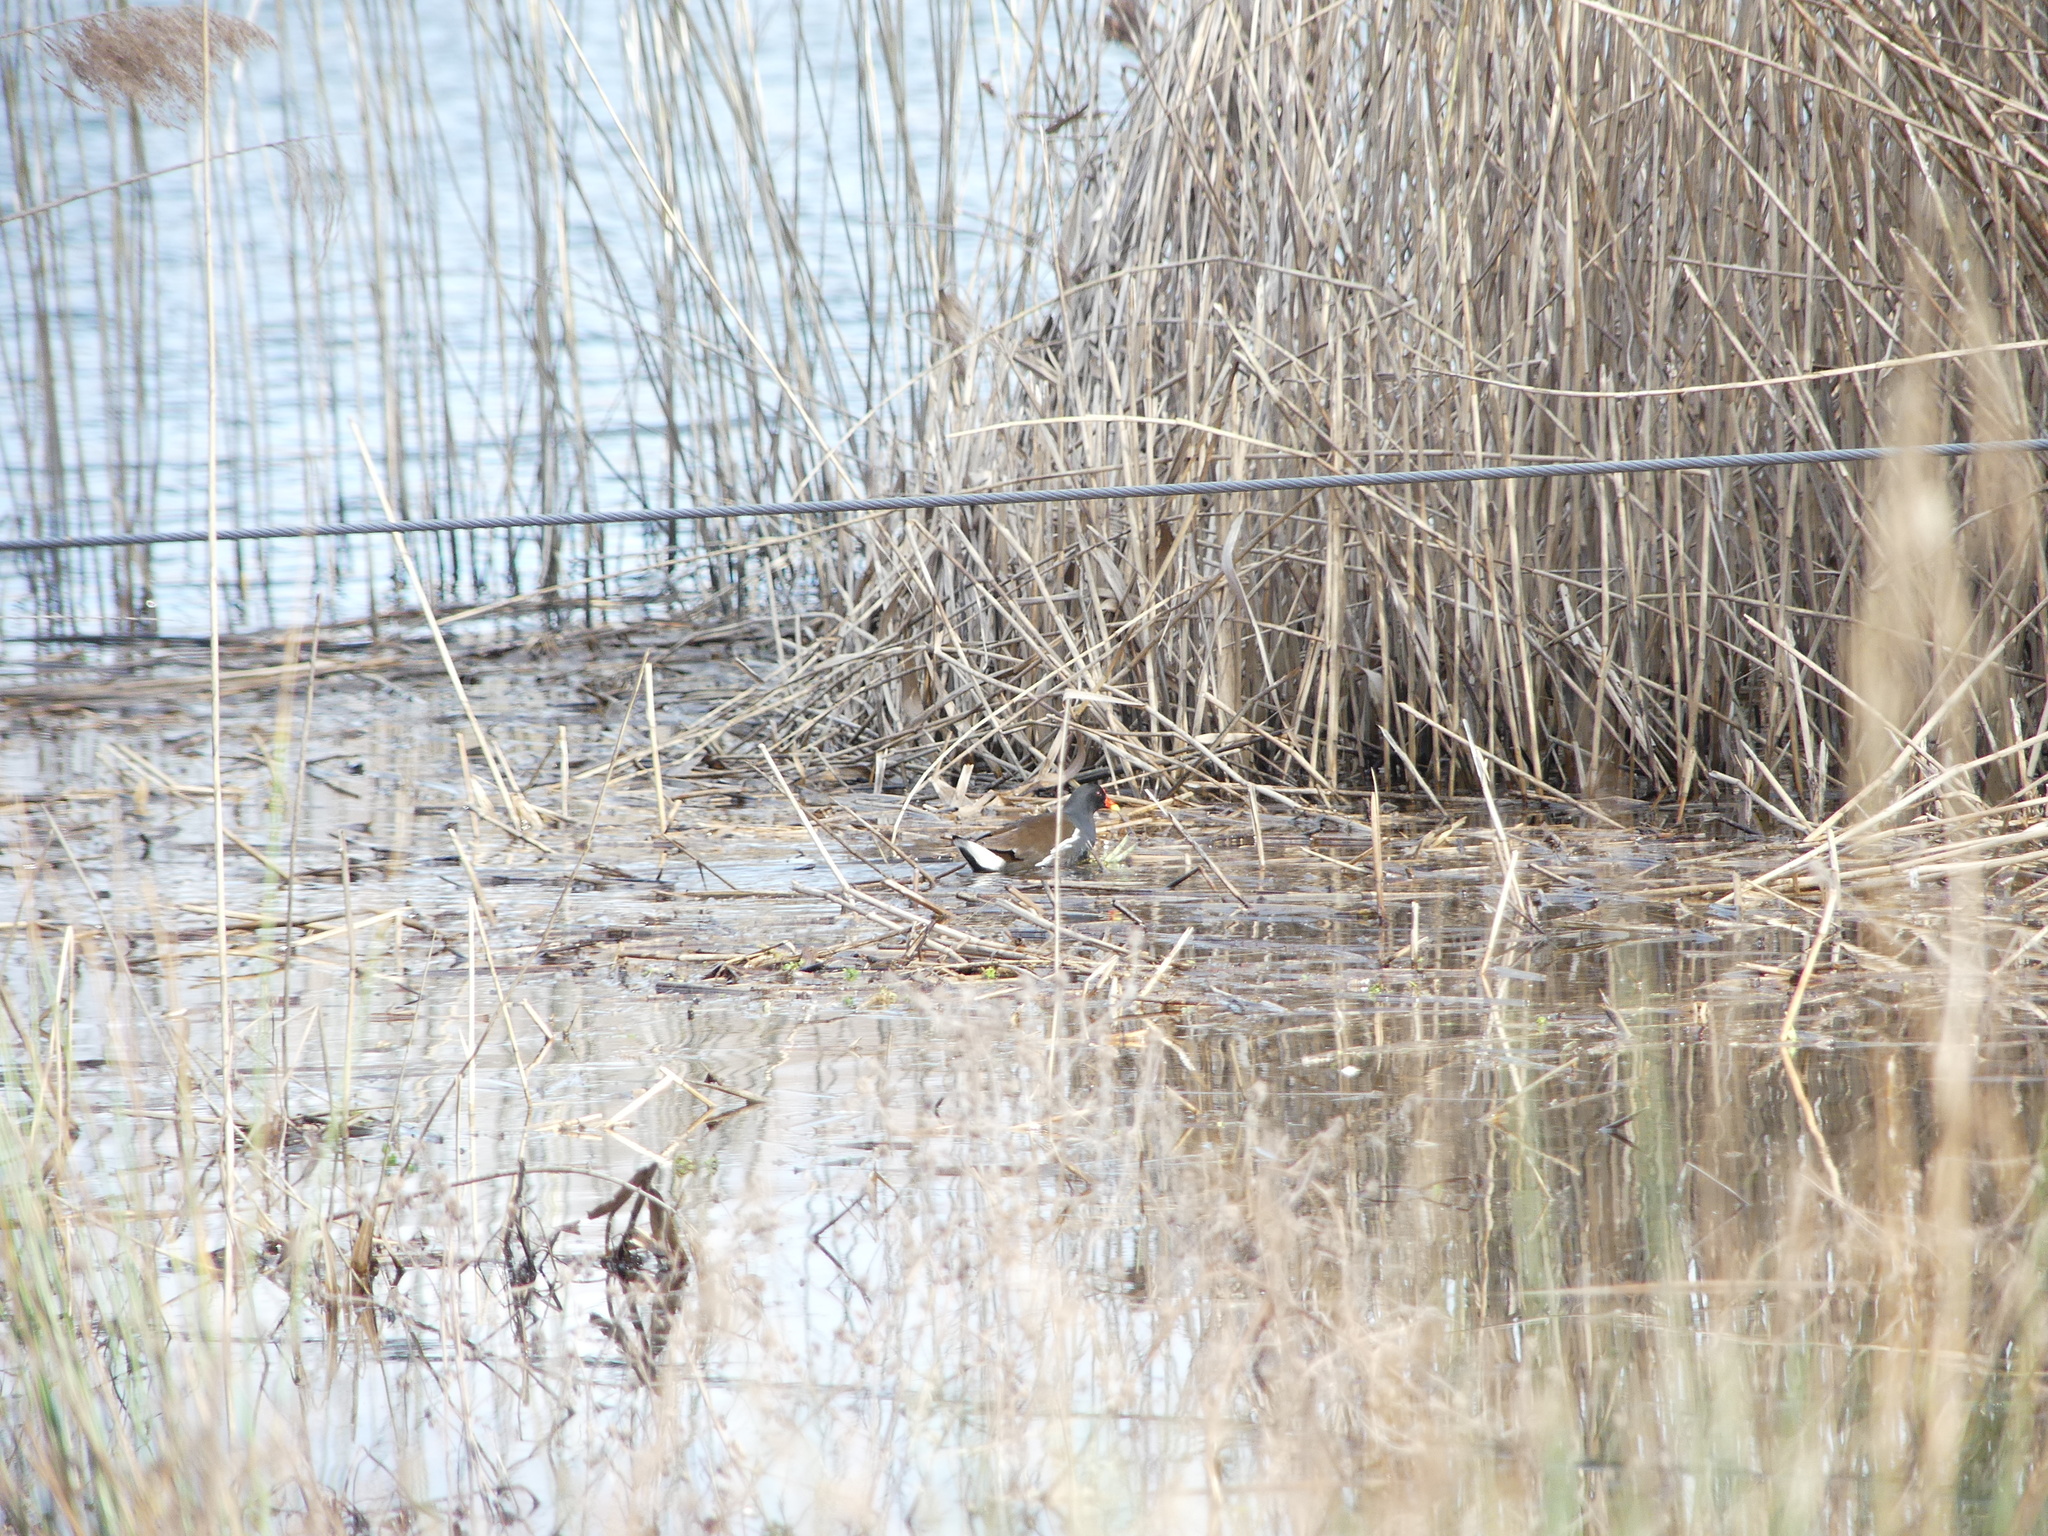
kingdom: Animalia
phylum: Chordata
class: Aves
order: Gruiformes
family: Rallidae
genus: Gallinula
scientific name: Gallinula chloropus
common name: Common moorhen
